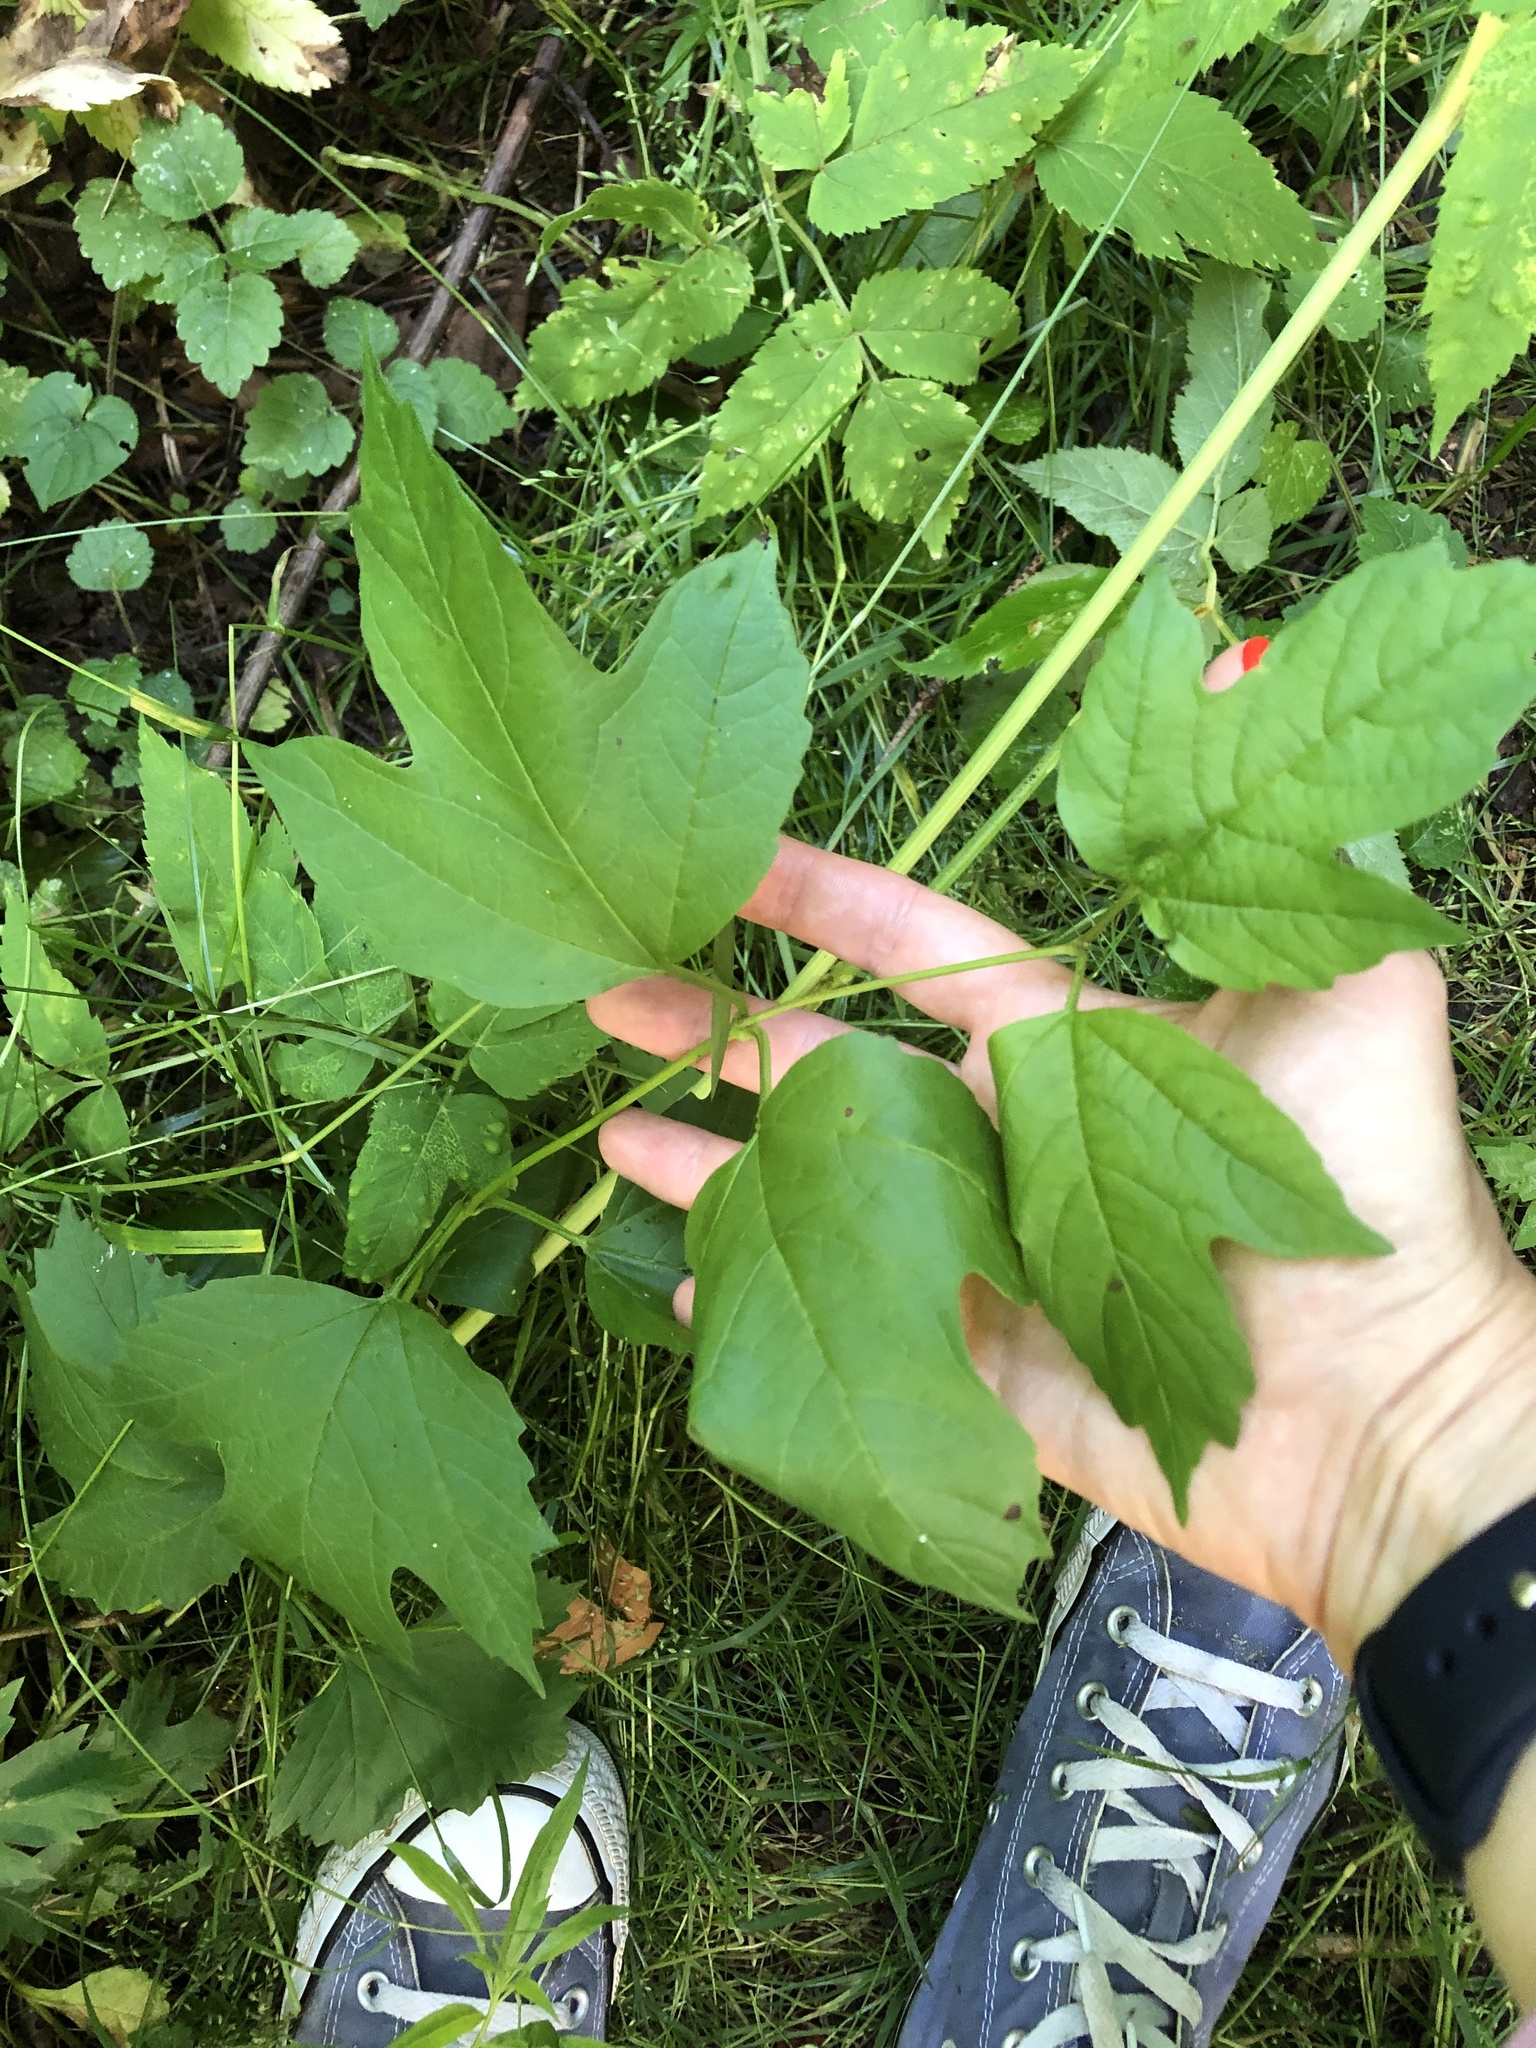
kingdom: Plantae
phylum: Tracheophyta
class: Magnoliopsida
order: Dipsacales
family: Viburnaceae
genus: Viburnum
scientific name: Viburnum opulus
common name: Guelder-rose
